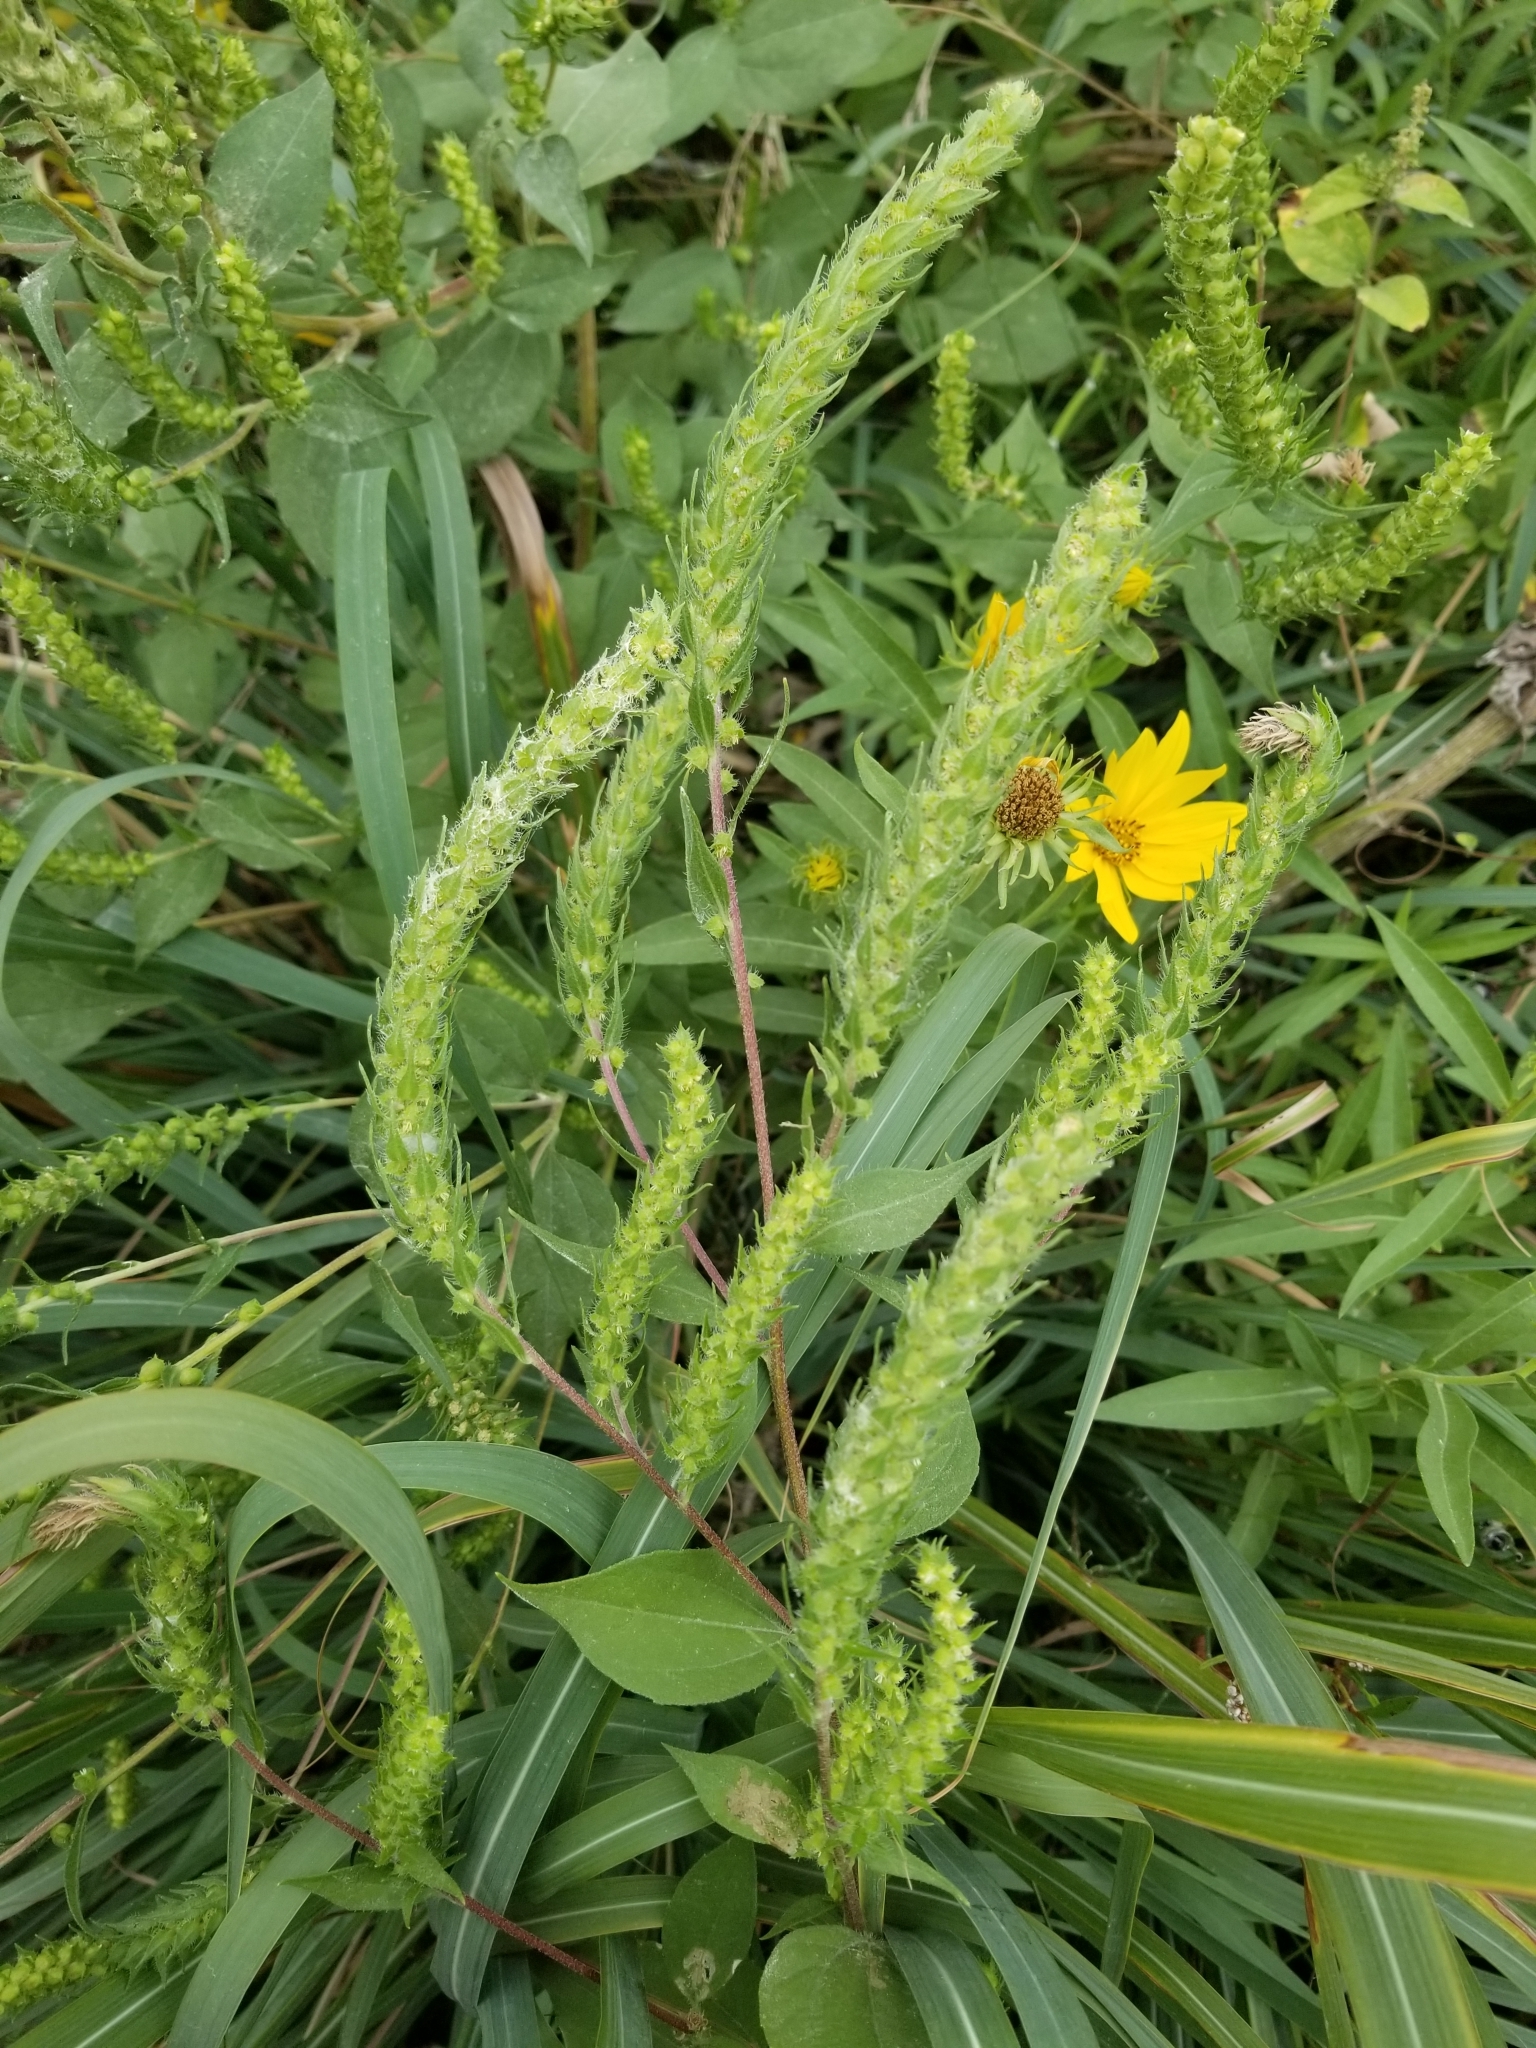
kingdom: Plantae
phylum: Tracheophyta
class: Magnoliopsida
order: Asterales
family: Asteraceae
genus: Iva
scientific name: Iva annua
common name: Marsh-elder
